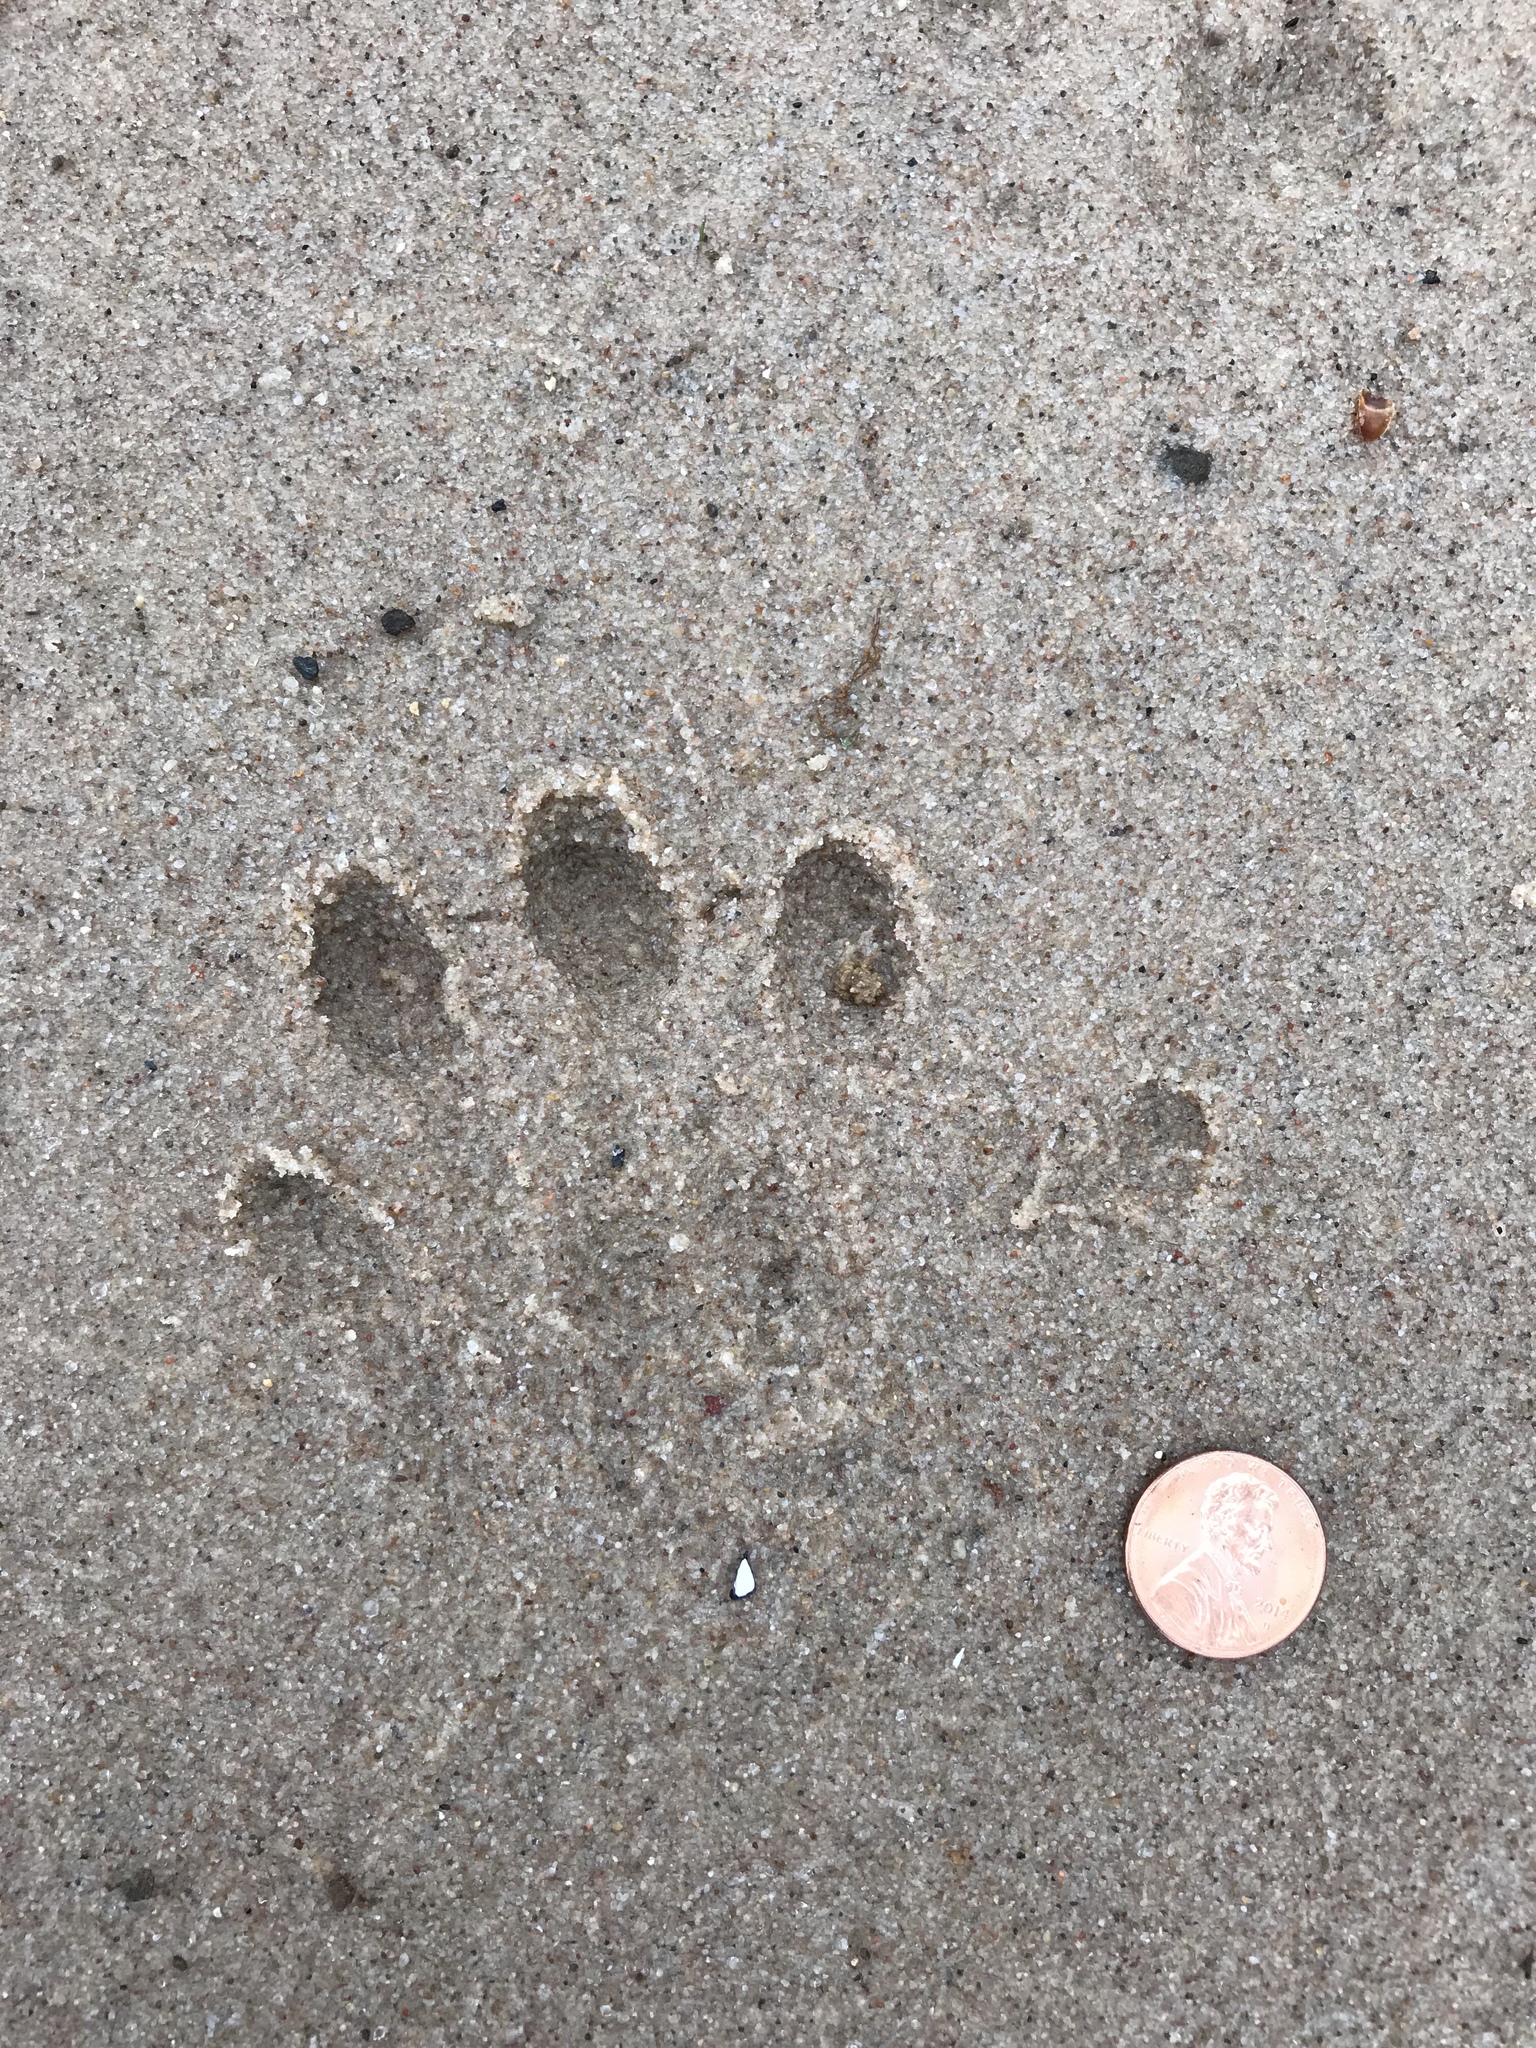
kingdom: Animalia
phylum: Chordata
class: Mammalia
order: Carnivora
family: Mustelidae
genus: Lontra
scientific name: Lontra canadensis
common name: North american river otter
